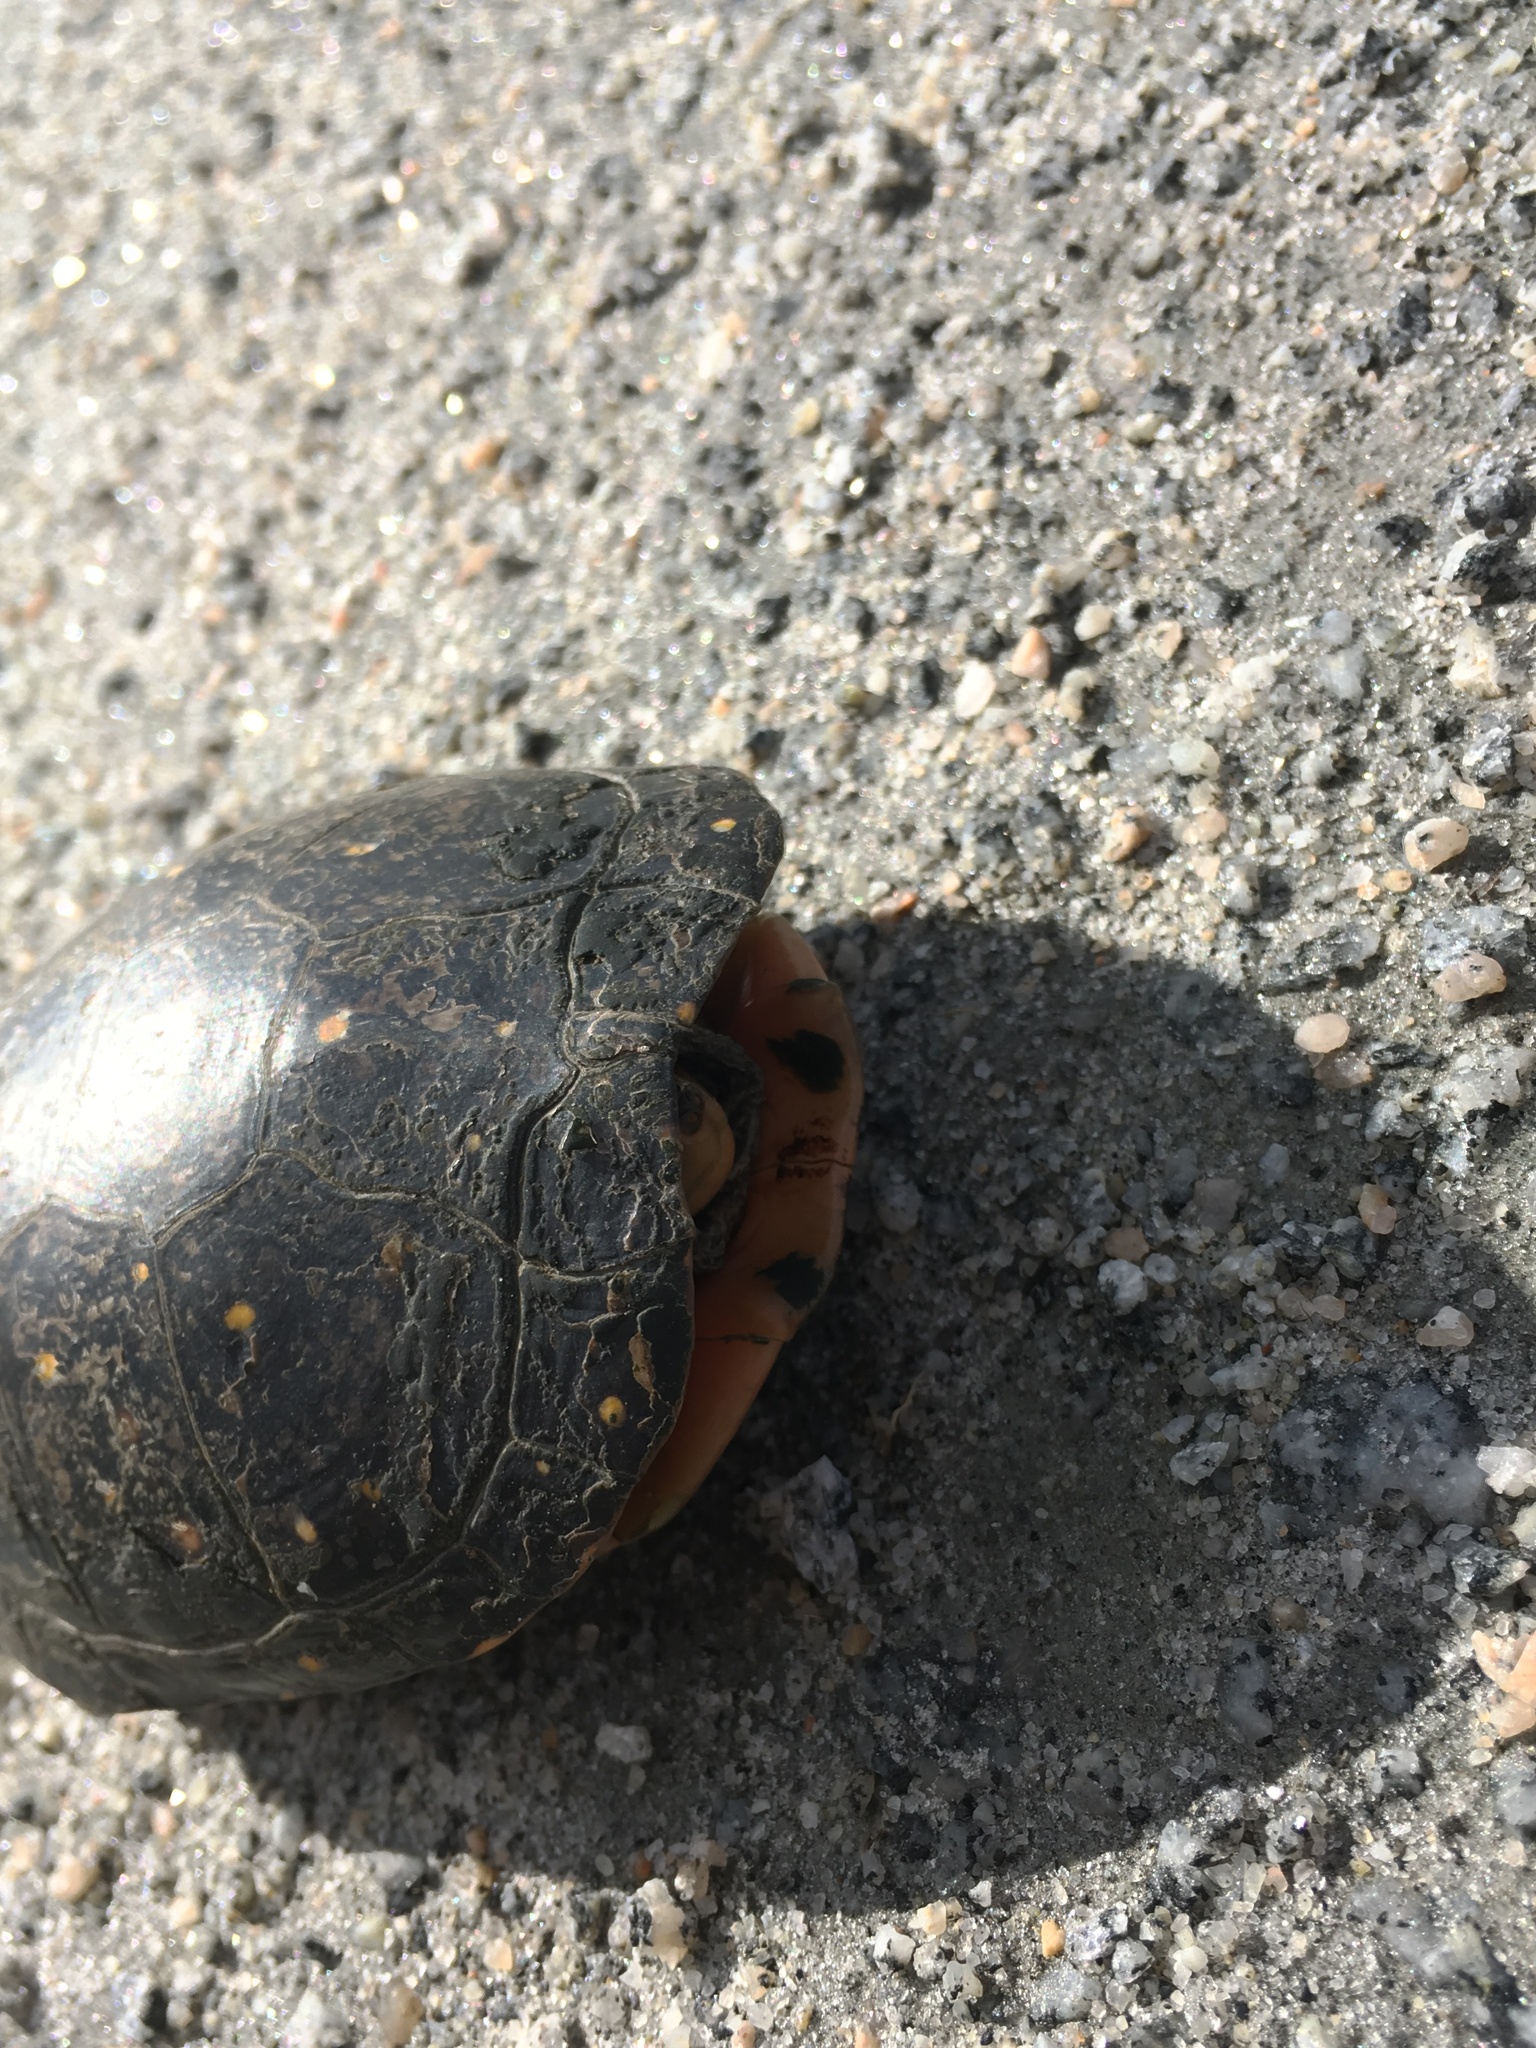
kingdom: Animalia
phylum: Chordata
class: Testudines
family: Emydidae
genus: Clemmys
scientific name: Clemmys guttata
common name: Spotted turtle
